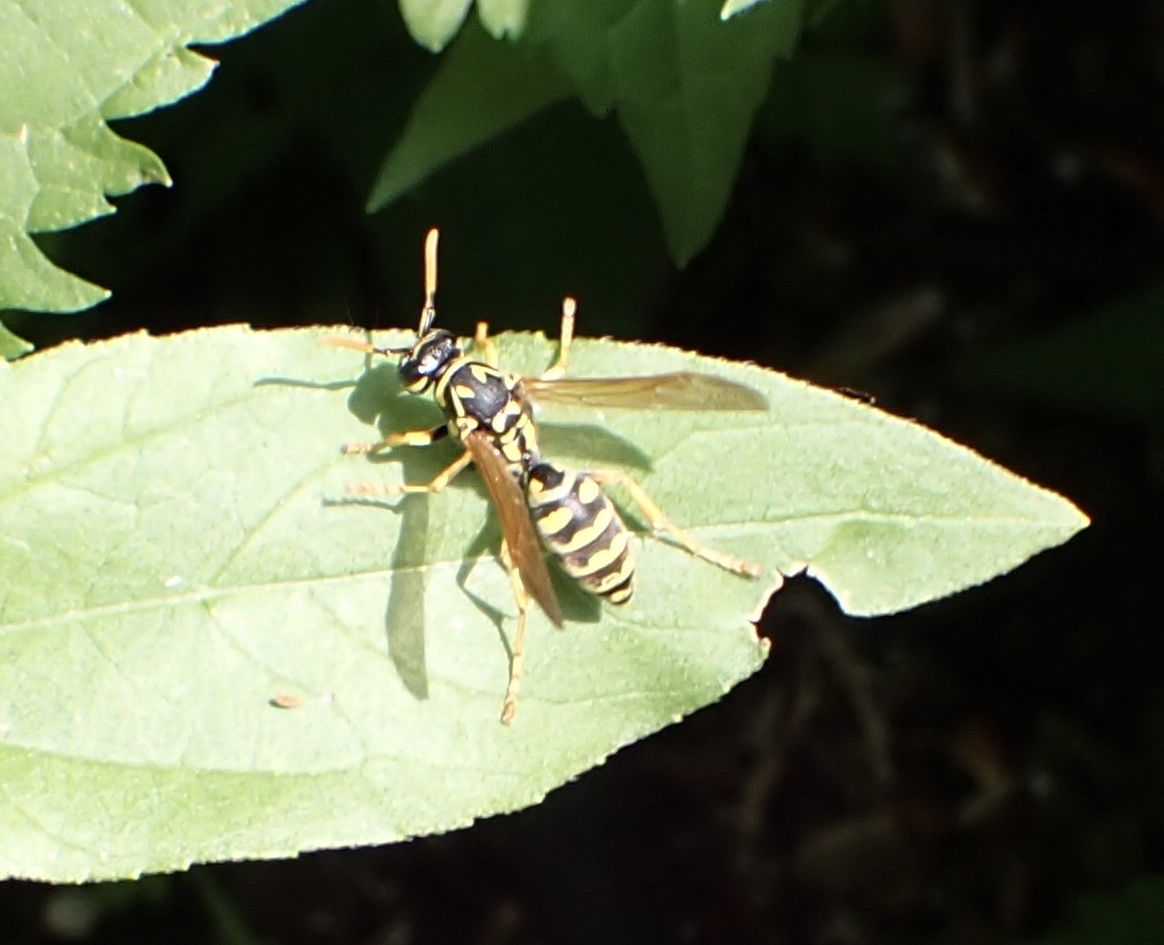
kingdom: Animalia
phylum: Arthropoda
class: Insecta
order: Hymenoptera
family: Eumenidae
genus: Polistes
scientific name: Polistes dominula
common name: Paper wasp
